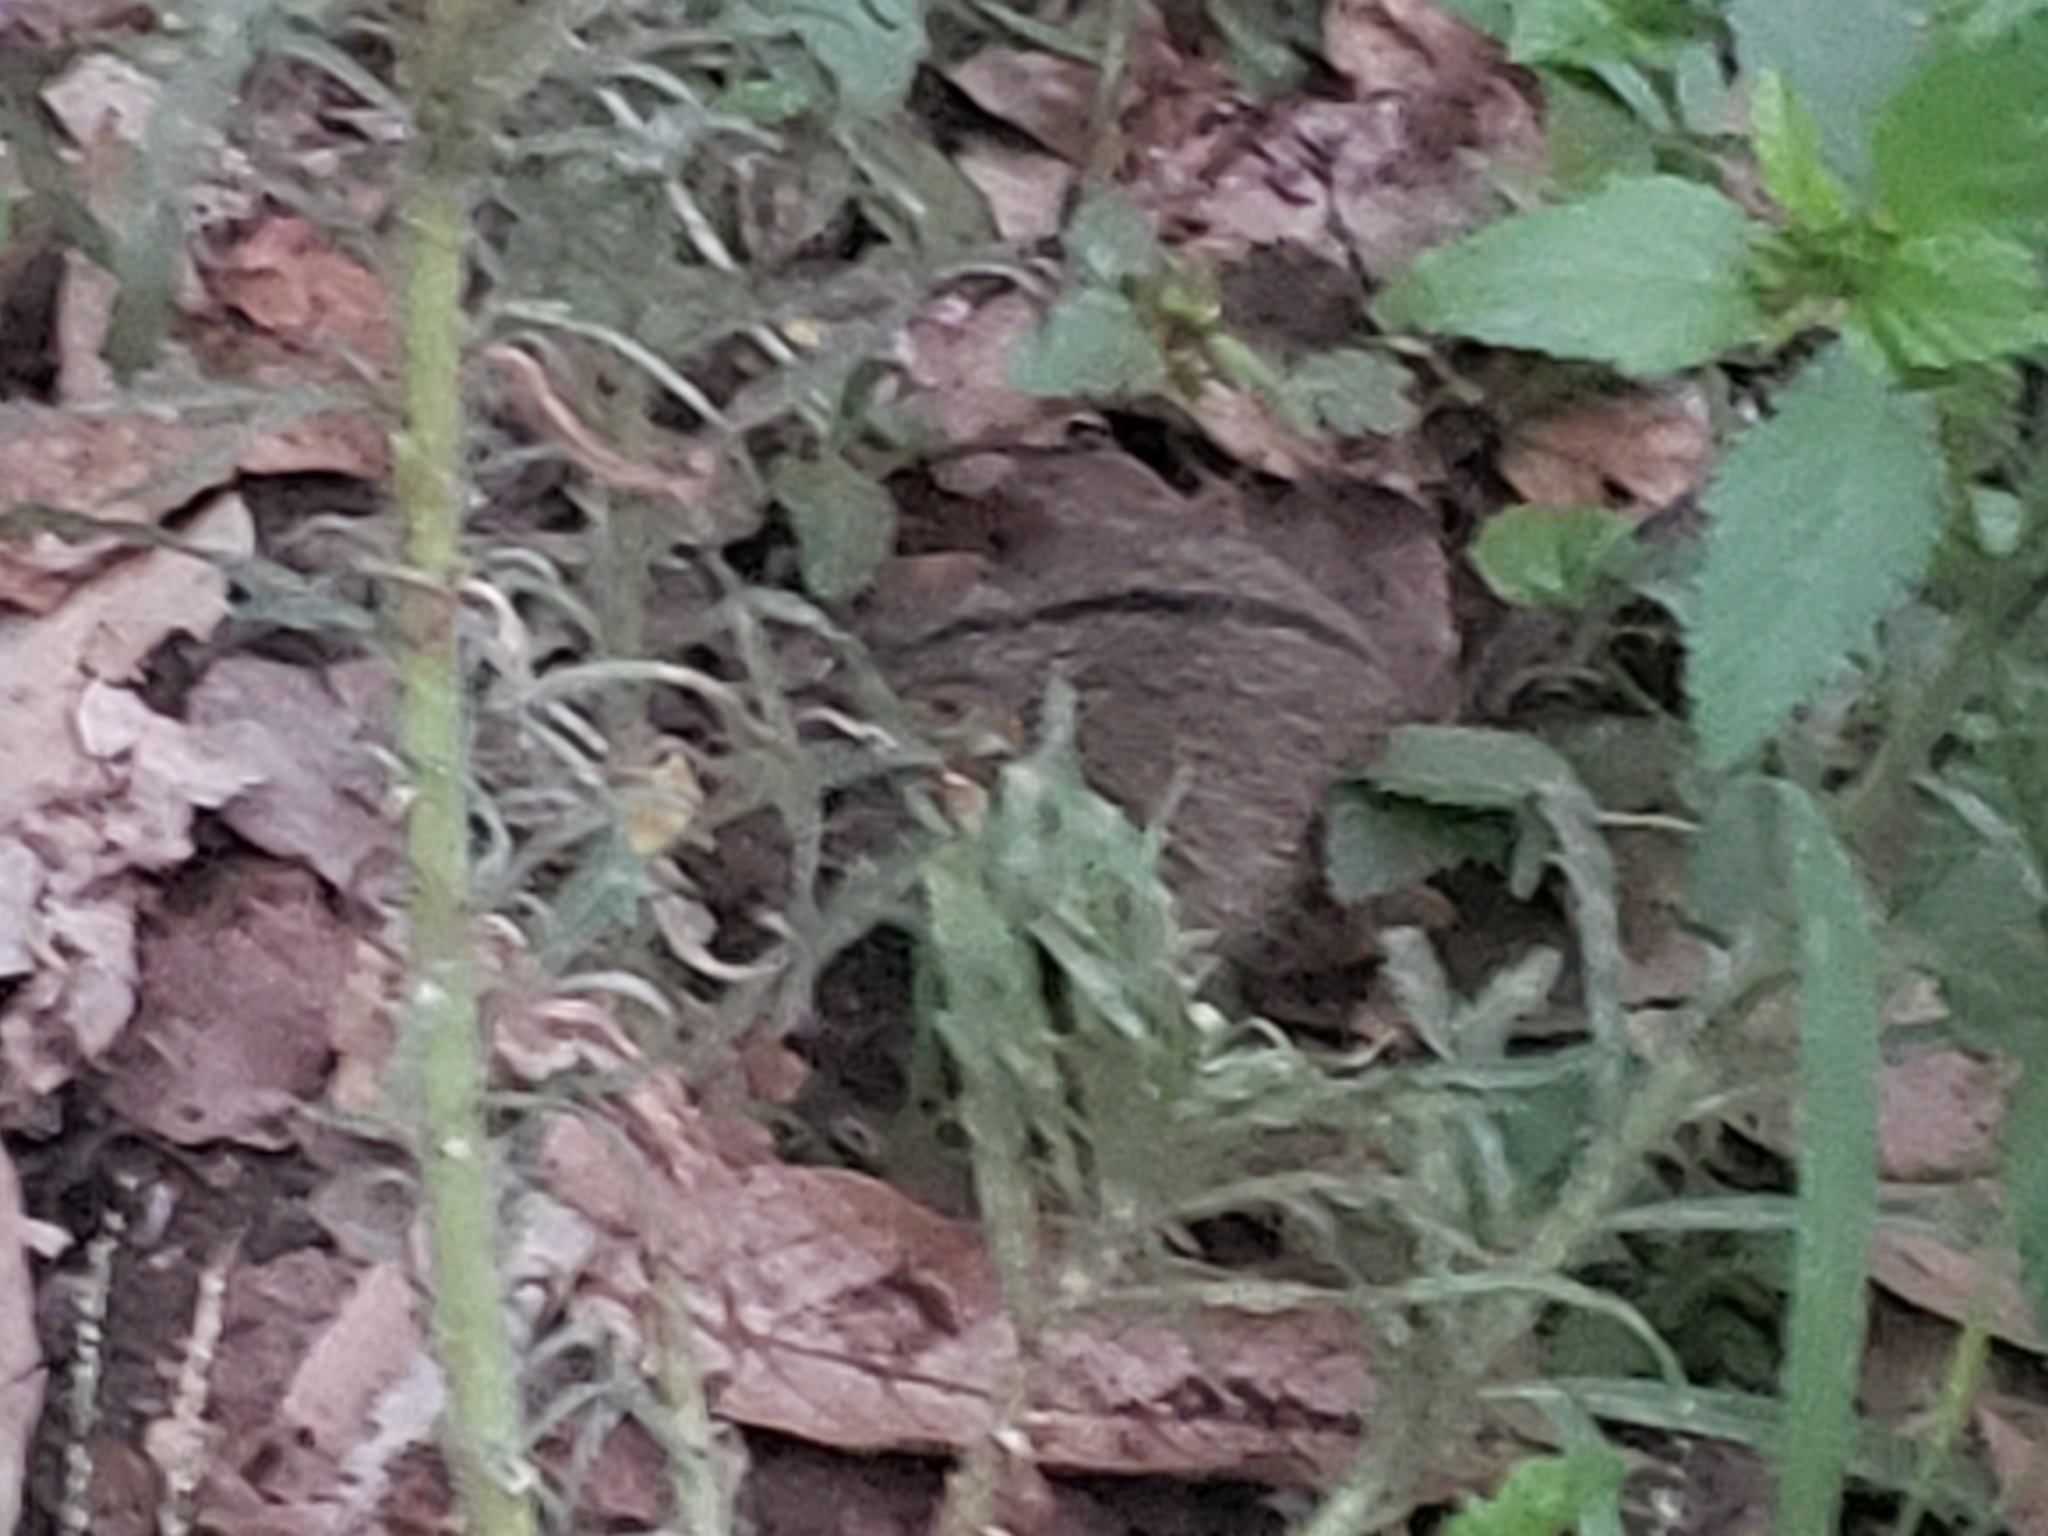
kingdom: Animalia
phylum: Chordata
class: Mammalia
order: Rodentia
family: Muridae
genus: Lemniscomys
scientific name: Lemniscomys rosalia
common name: Single-striped lemniscomys
